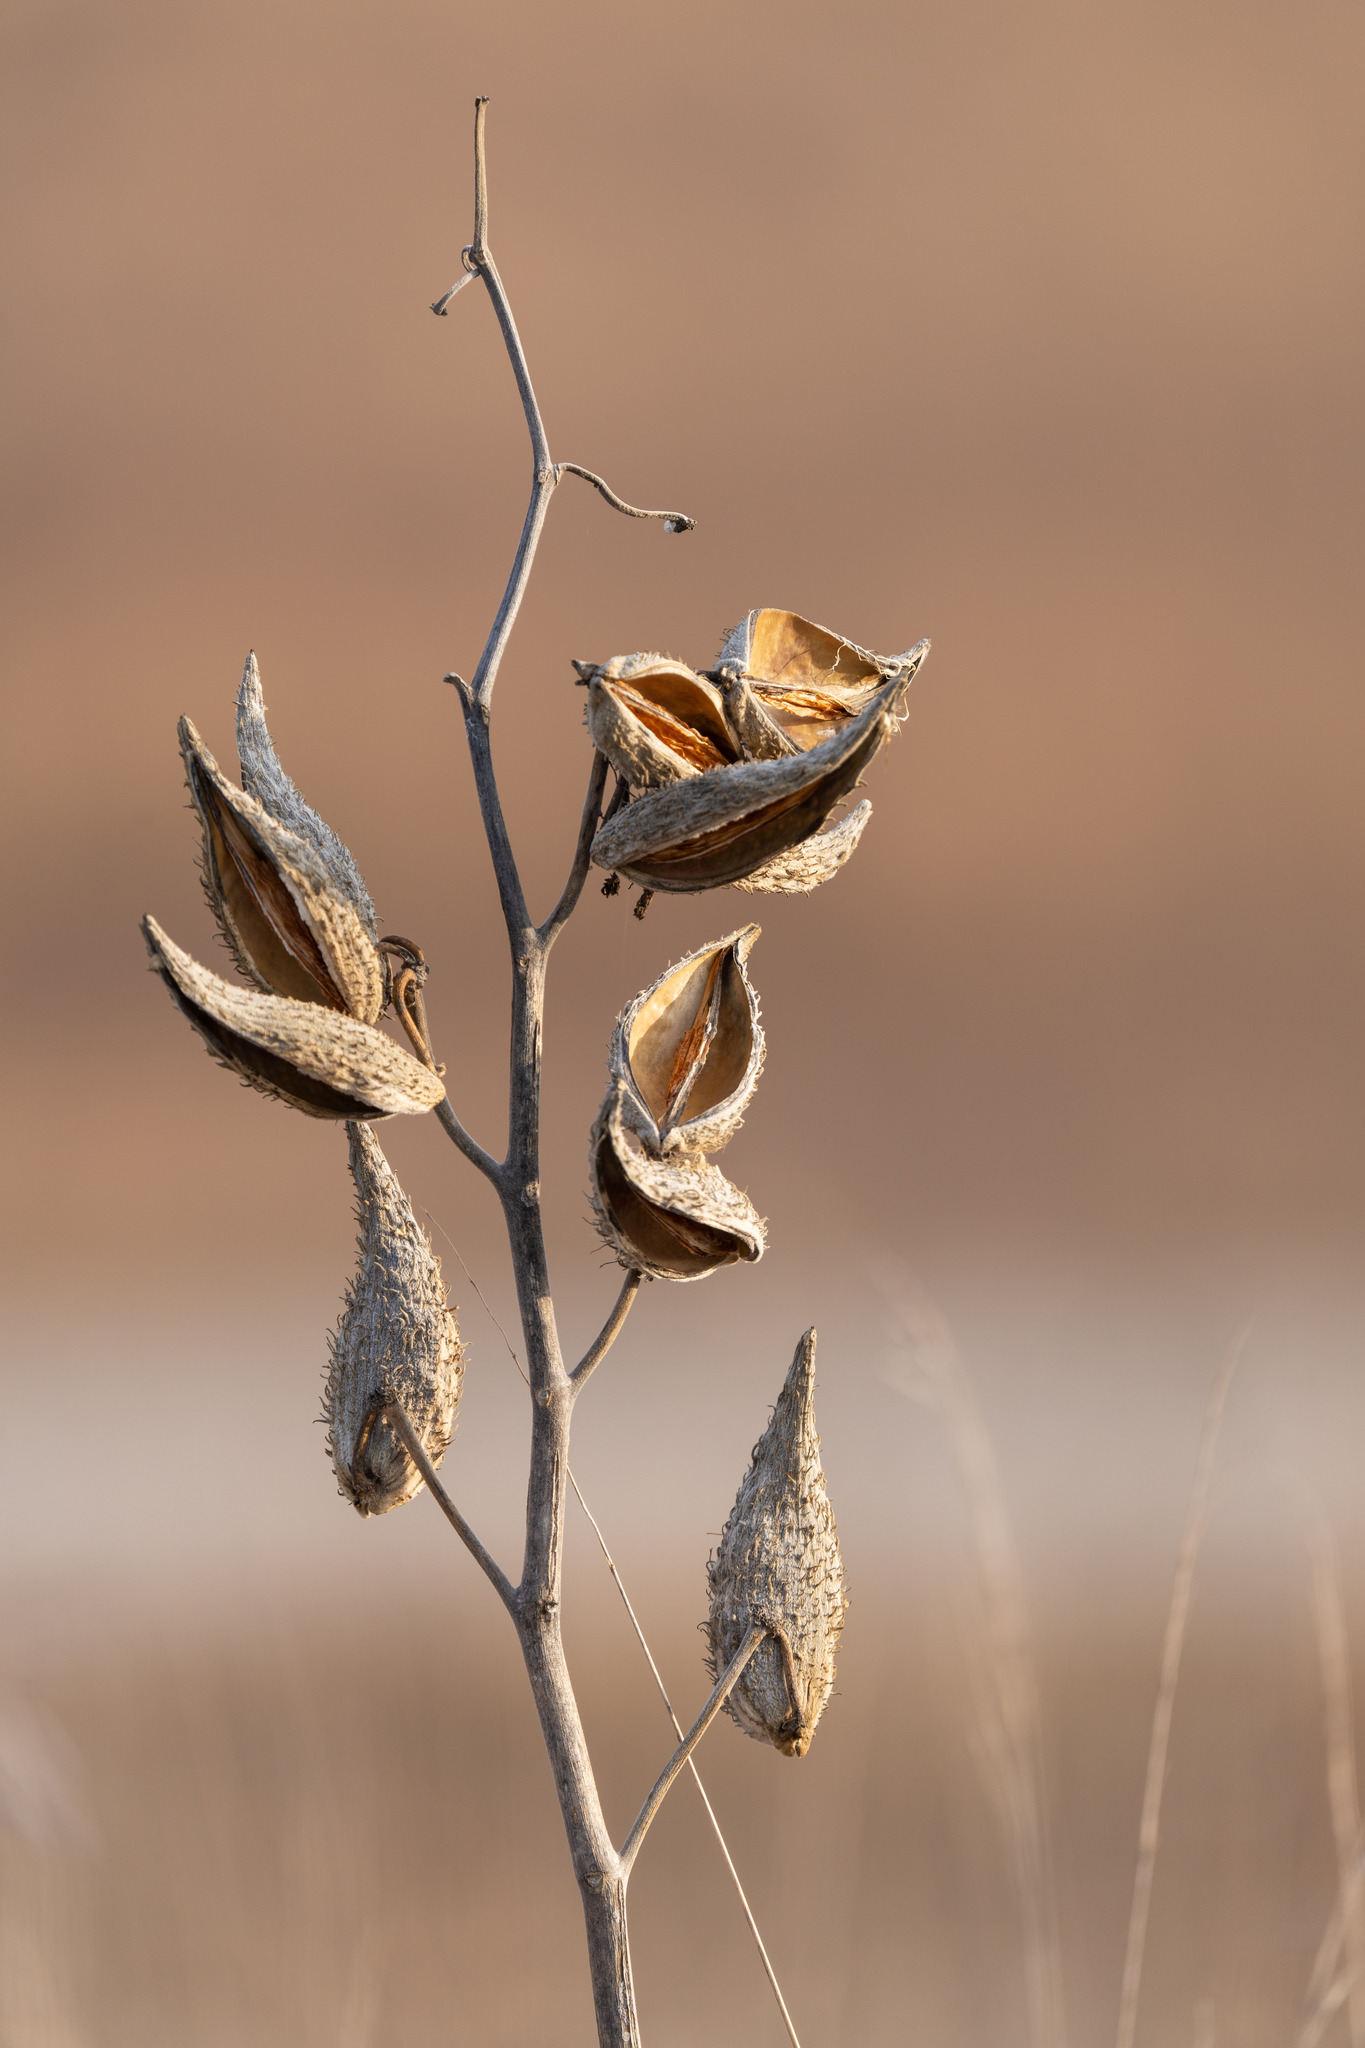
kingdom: Plantae
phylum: Tracheophyta
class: Magnoliopsida
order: Gentianales
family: Apocynaceae
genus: Asclepias
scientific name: Asclepias syriaca
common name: Common milkweed
